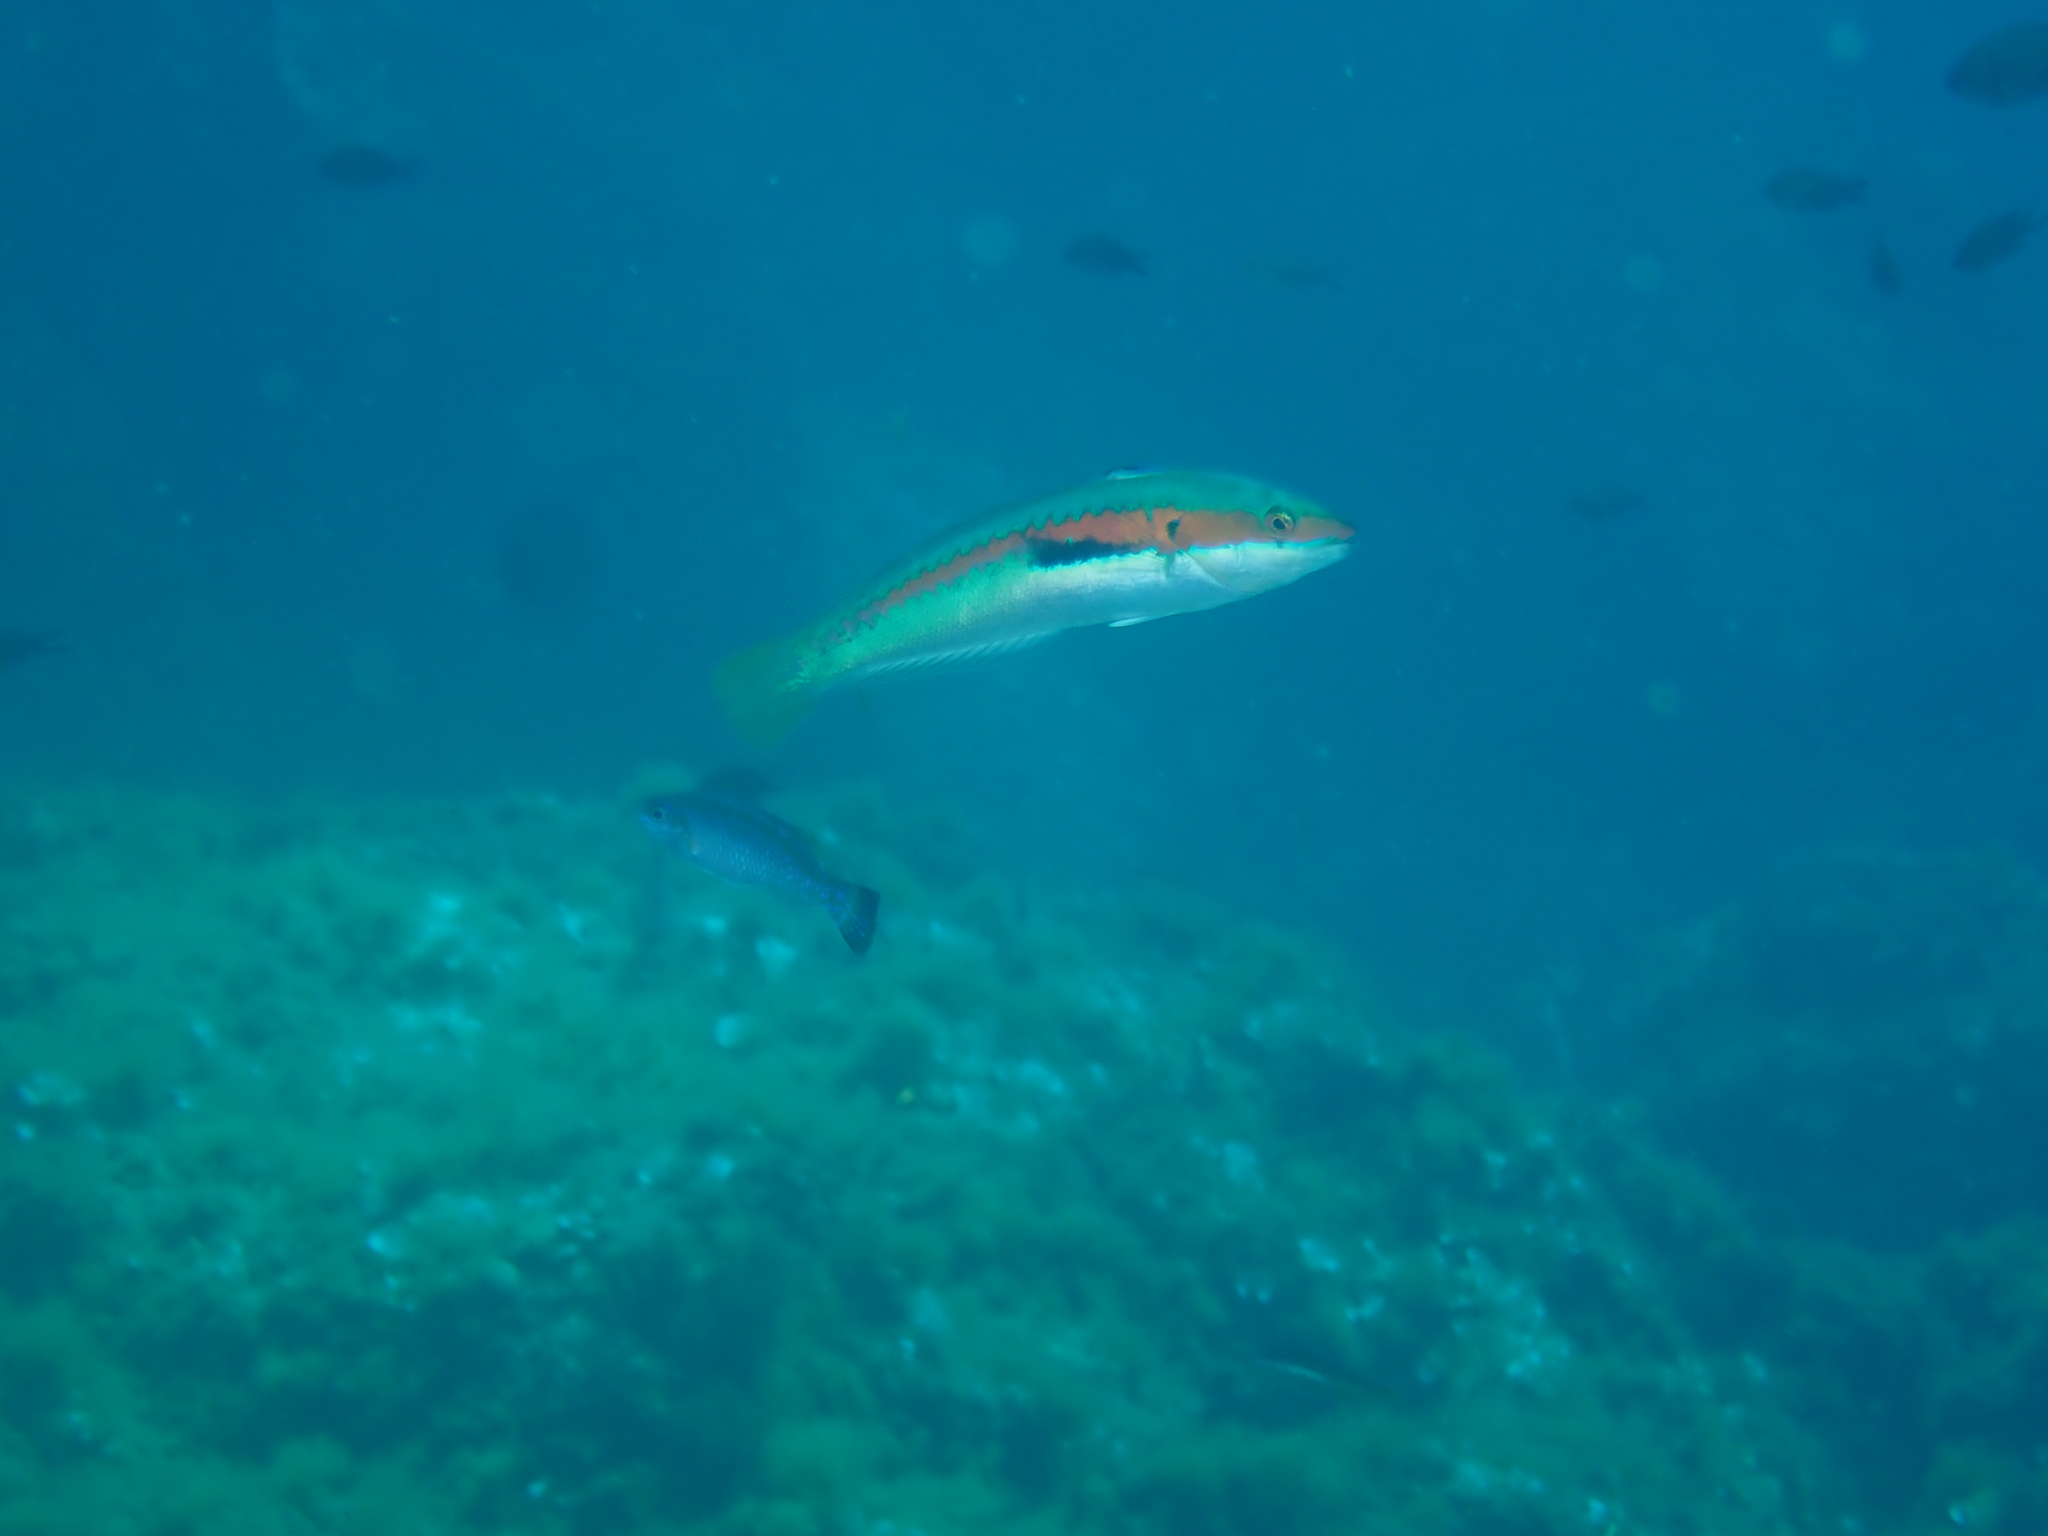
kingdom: Animalia
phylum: Chordata
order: Perciformes
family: Labridae
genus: Coris
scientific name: Coris julis
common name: Rainbow wrasse
